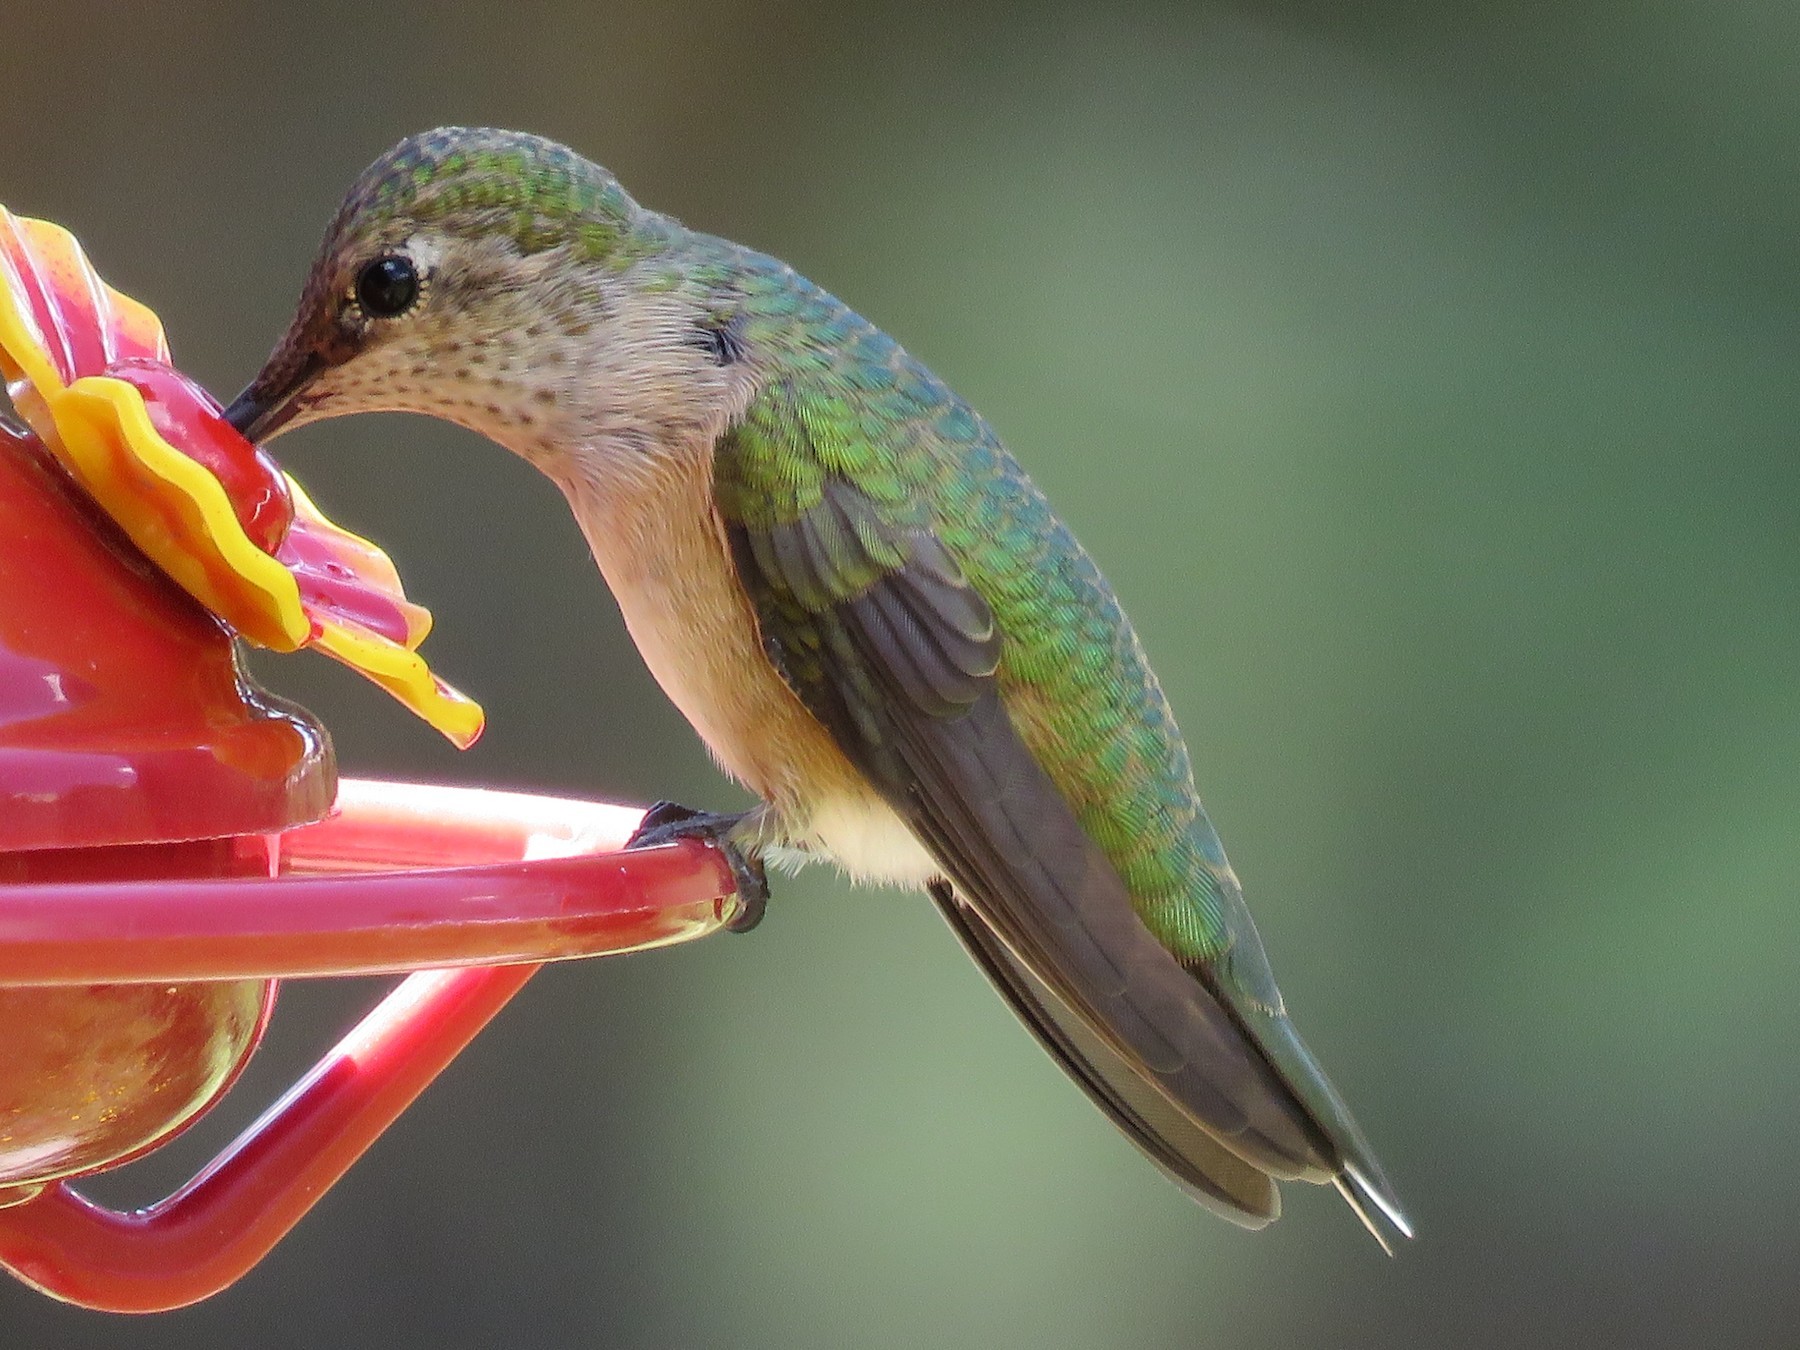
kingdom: Animalia
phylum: Chordata
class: Aves
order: Apodiformes
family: Trochilidae
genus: Selasphorus
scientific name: Selasphorus platycercus
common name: Broad-tailed hummingbird
